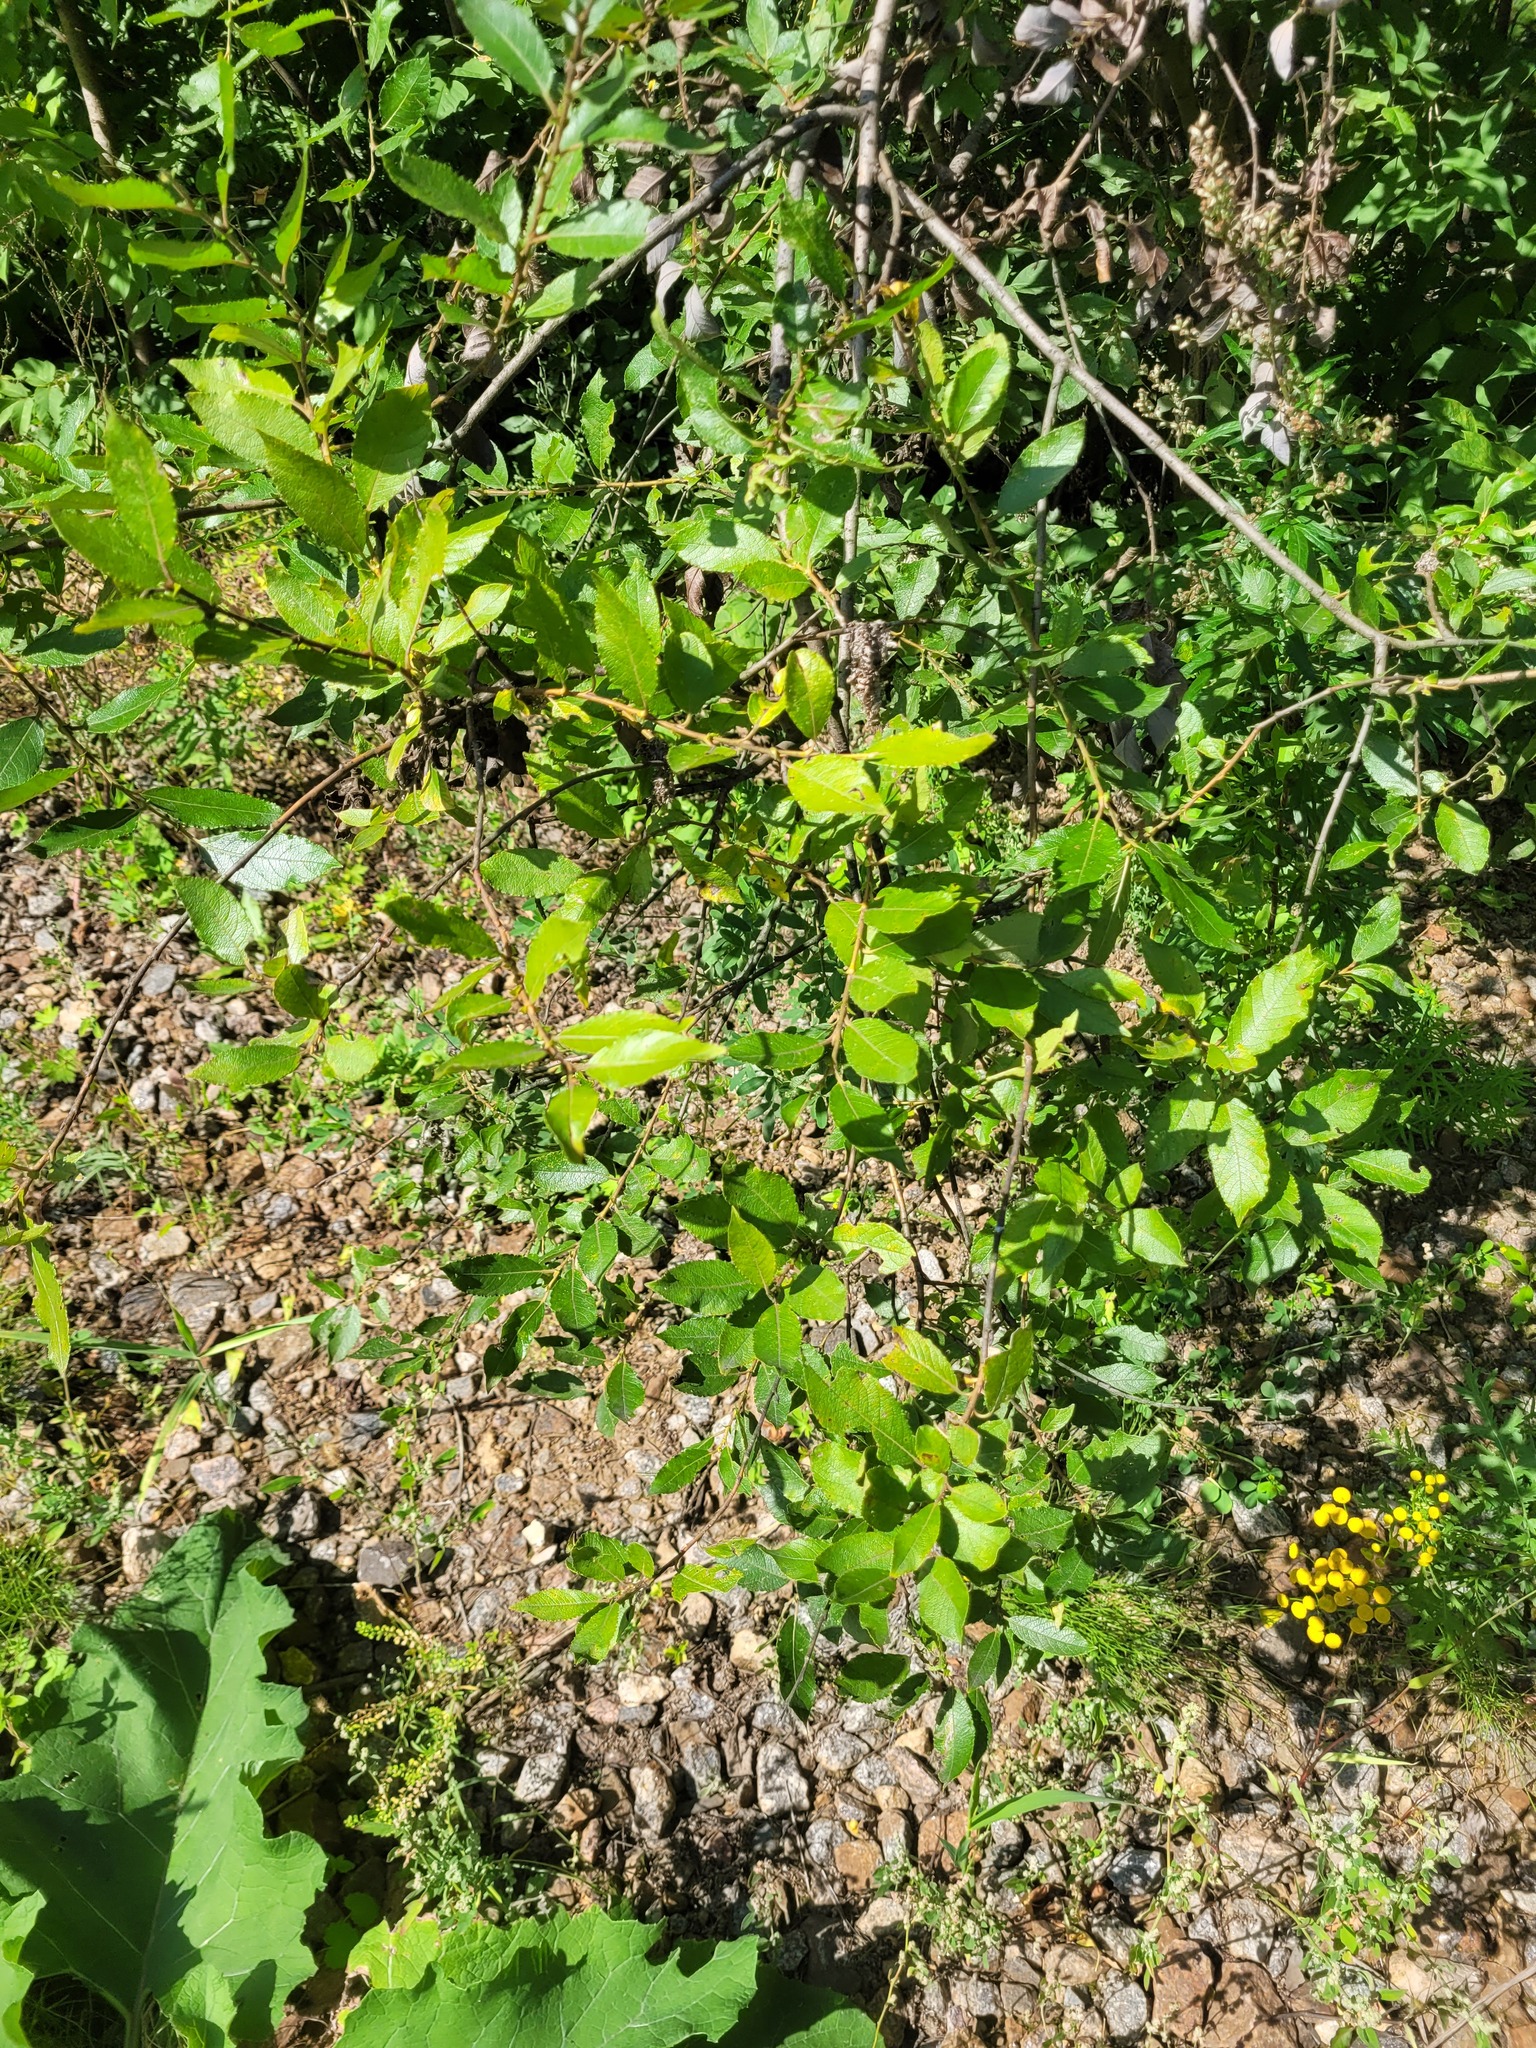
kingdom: Plantae
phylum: Tracheophyta
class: Magnoliopsida
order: Malpighiales
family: Salicaceae
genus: Salix
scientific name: Salix myrsinifolia
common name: Dark-leaved willow
